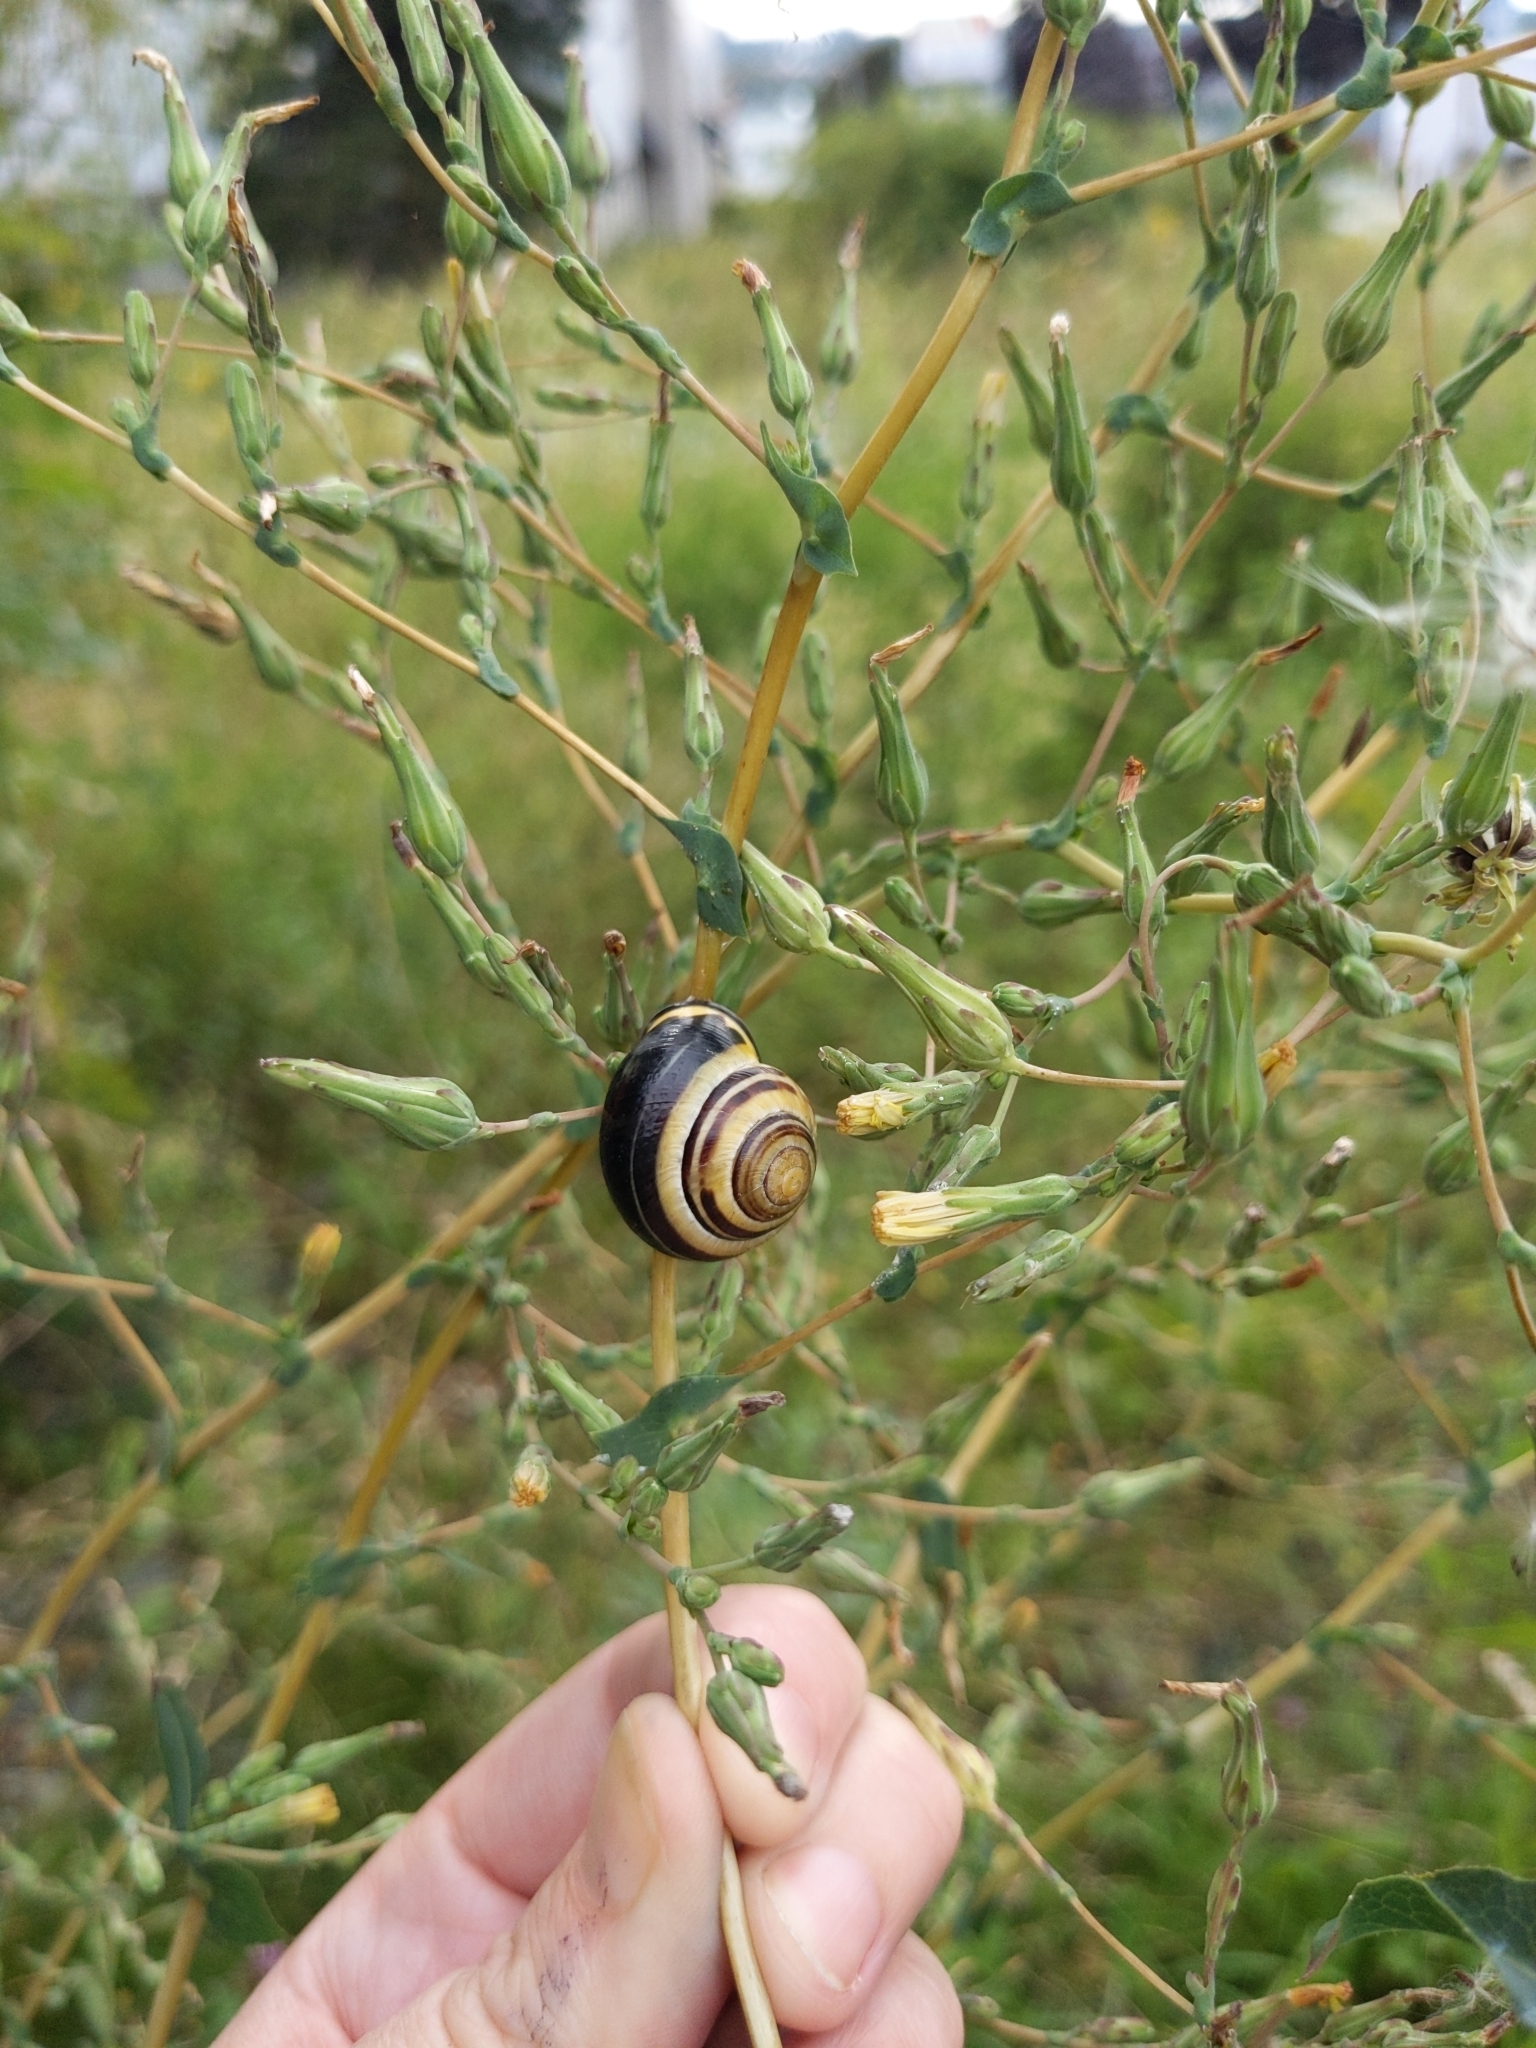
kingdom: Animalia
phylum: Mollusca
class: Gastropoda
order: Stylommatophora
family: Helicidae
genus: Cepaea
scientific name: Cepaea nemoralis
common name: Grovesnail
